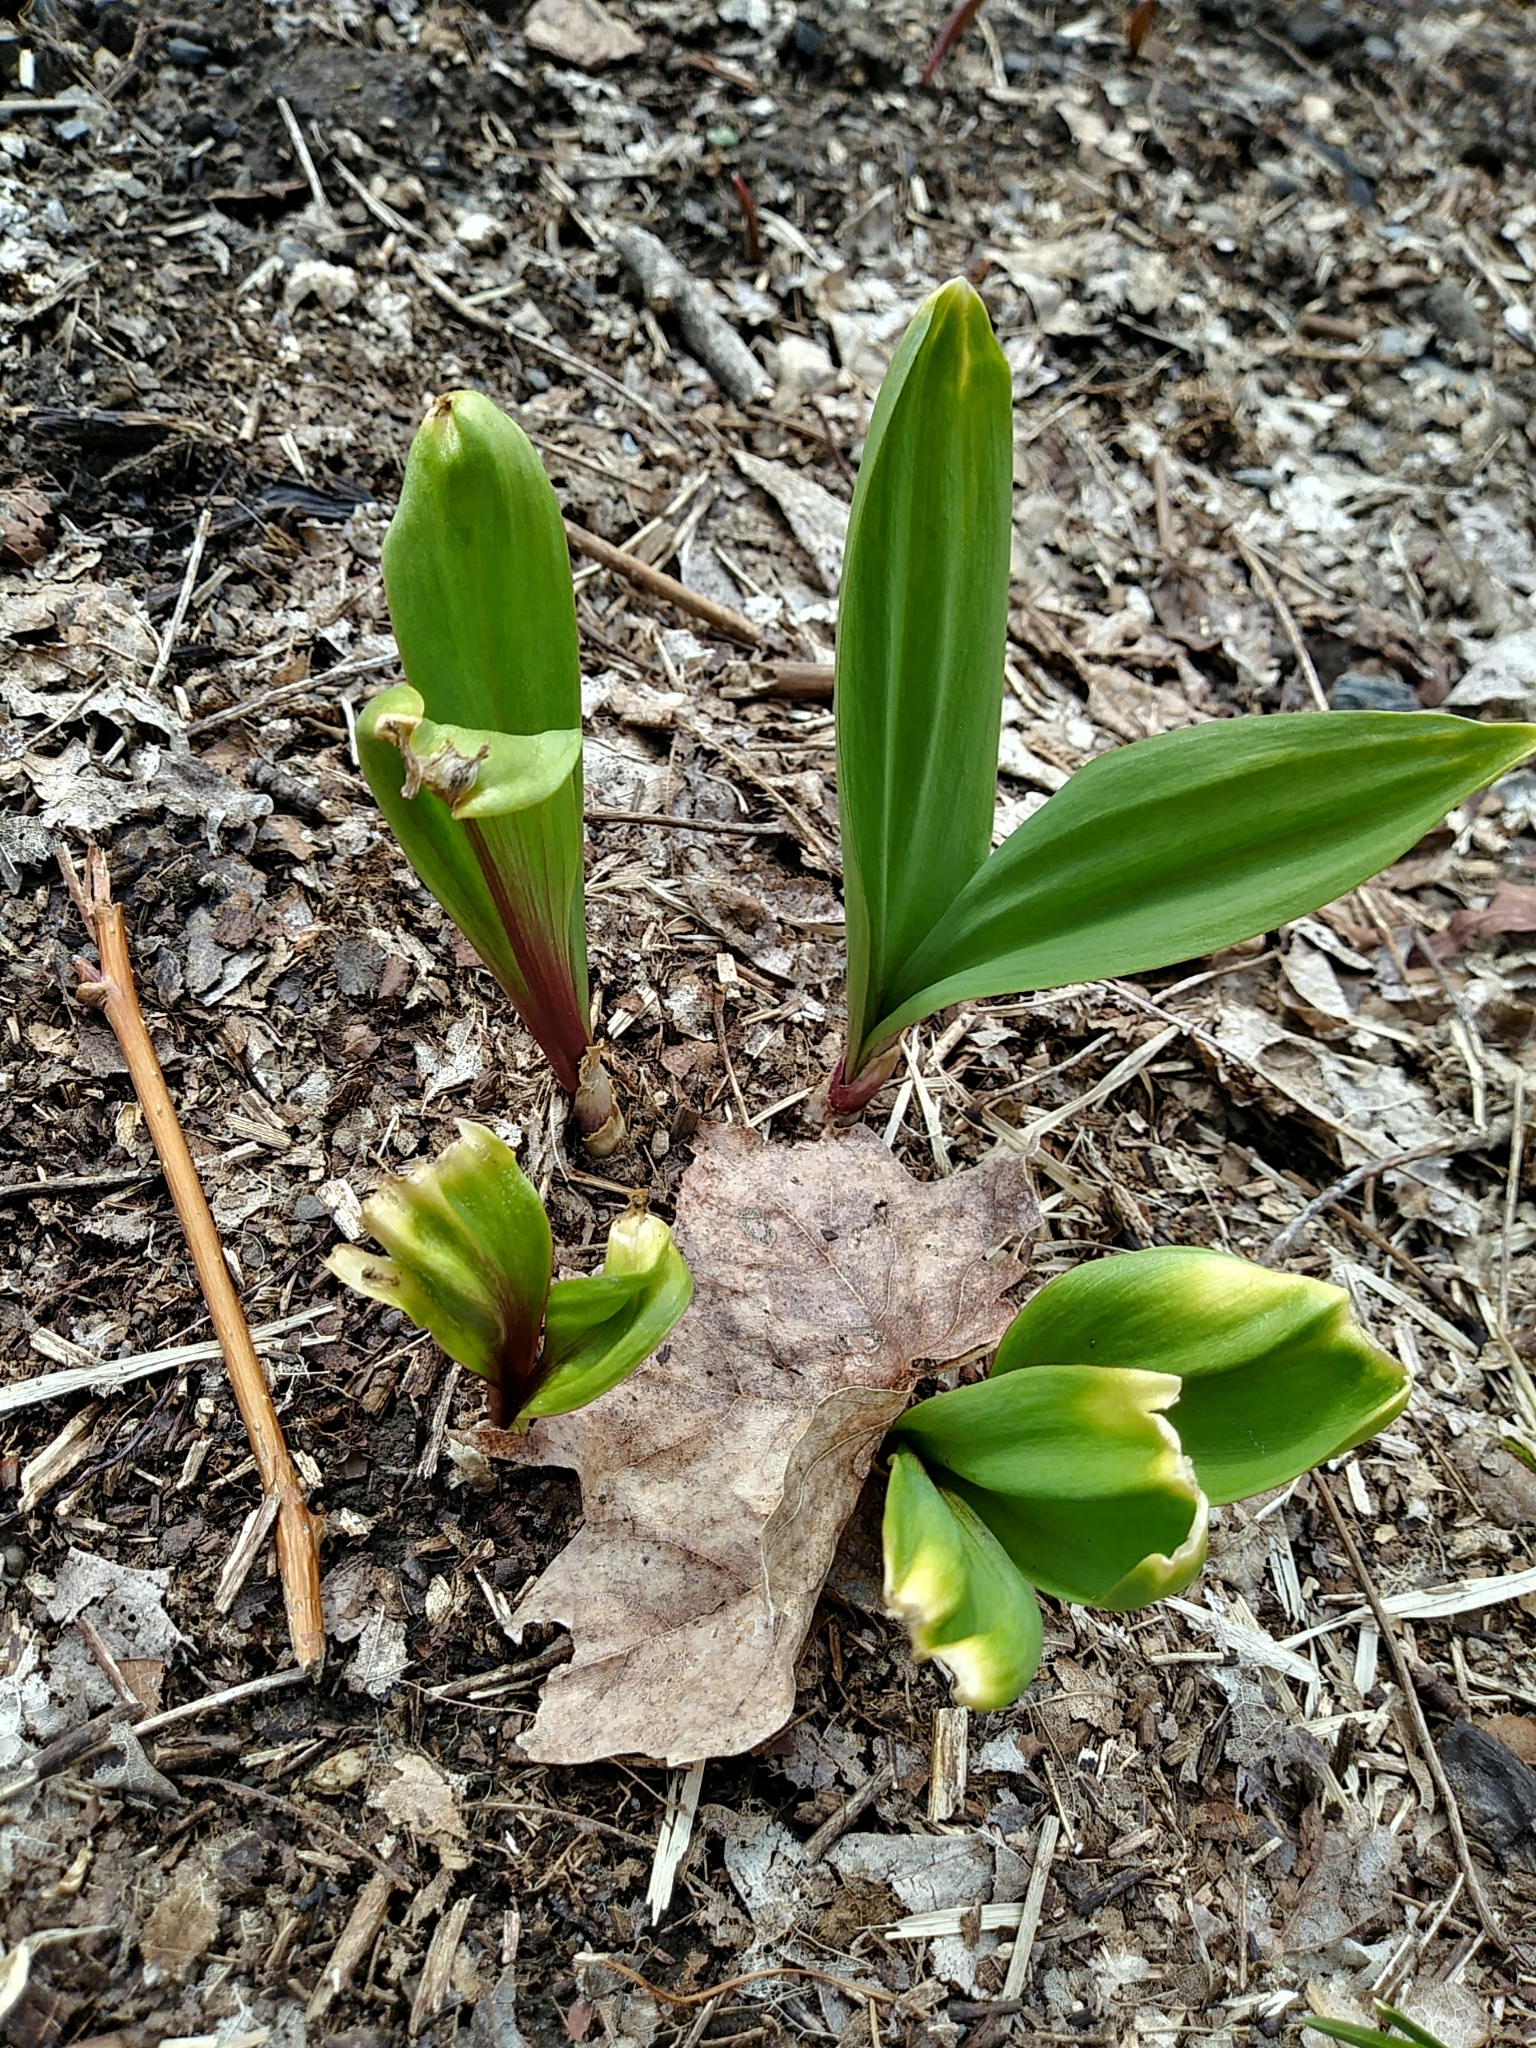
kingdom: Plantae
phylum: Tracheophyta
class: Liliopsida
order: Asparagales
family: Amaryllidaceae
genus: Allium
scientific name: Allium tricoccum
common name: Ramp
